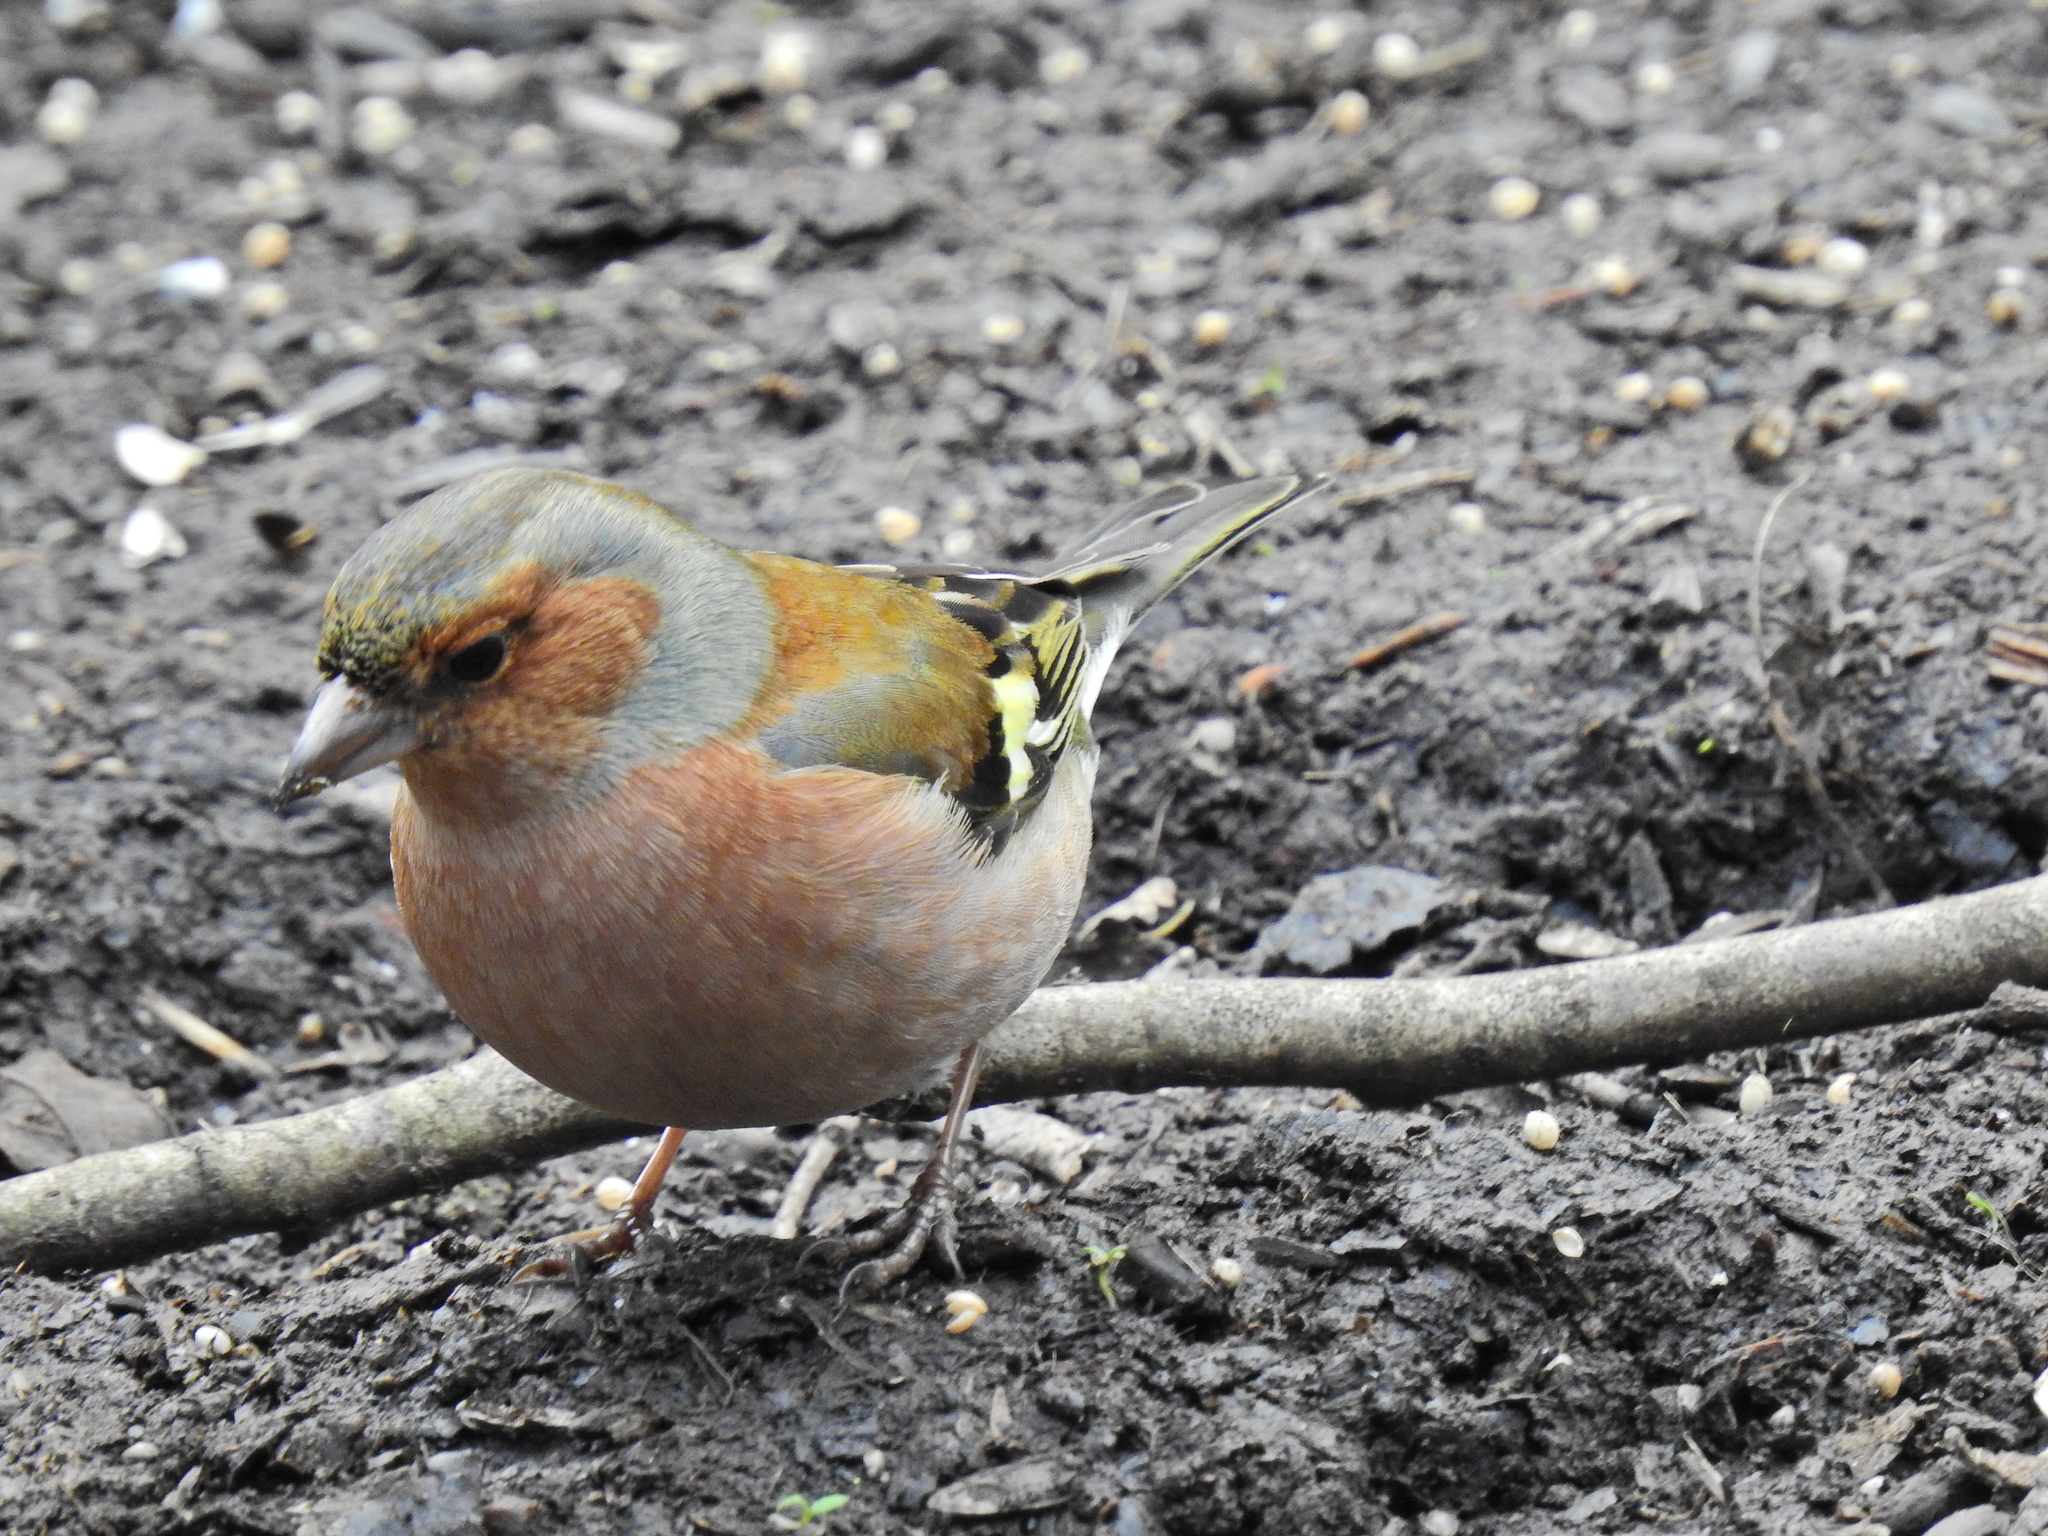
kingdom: Animalia
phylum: Chordata
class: Aves
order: Passeriformes
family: Fringillidae
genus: Fringilla
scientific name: Fringilla coelebs
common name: Common chaffinch
